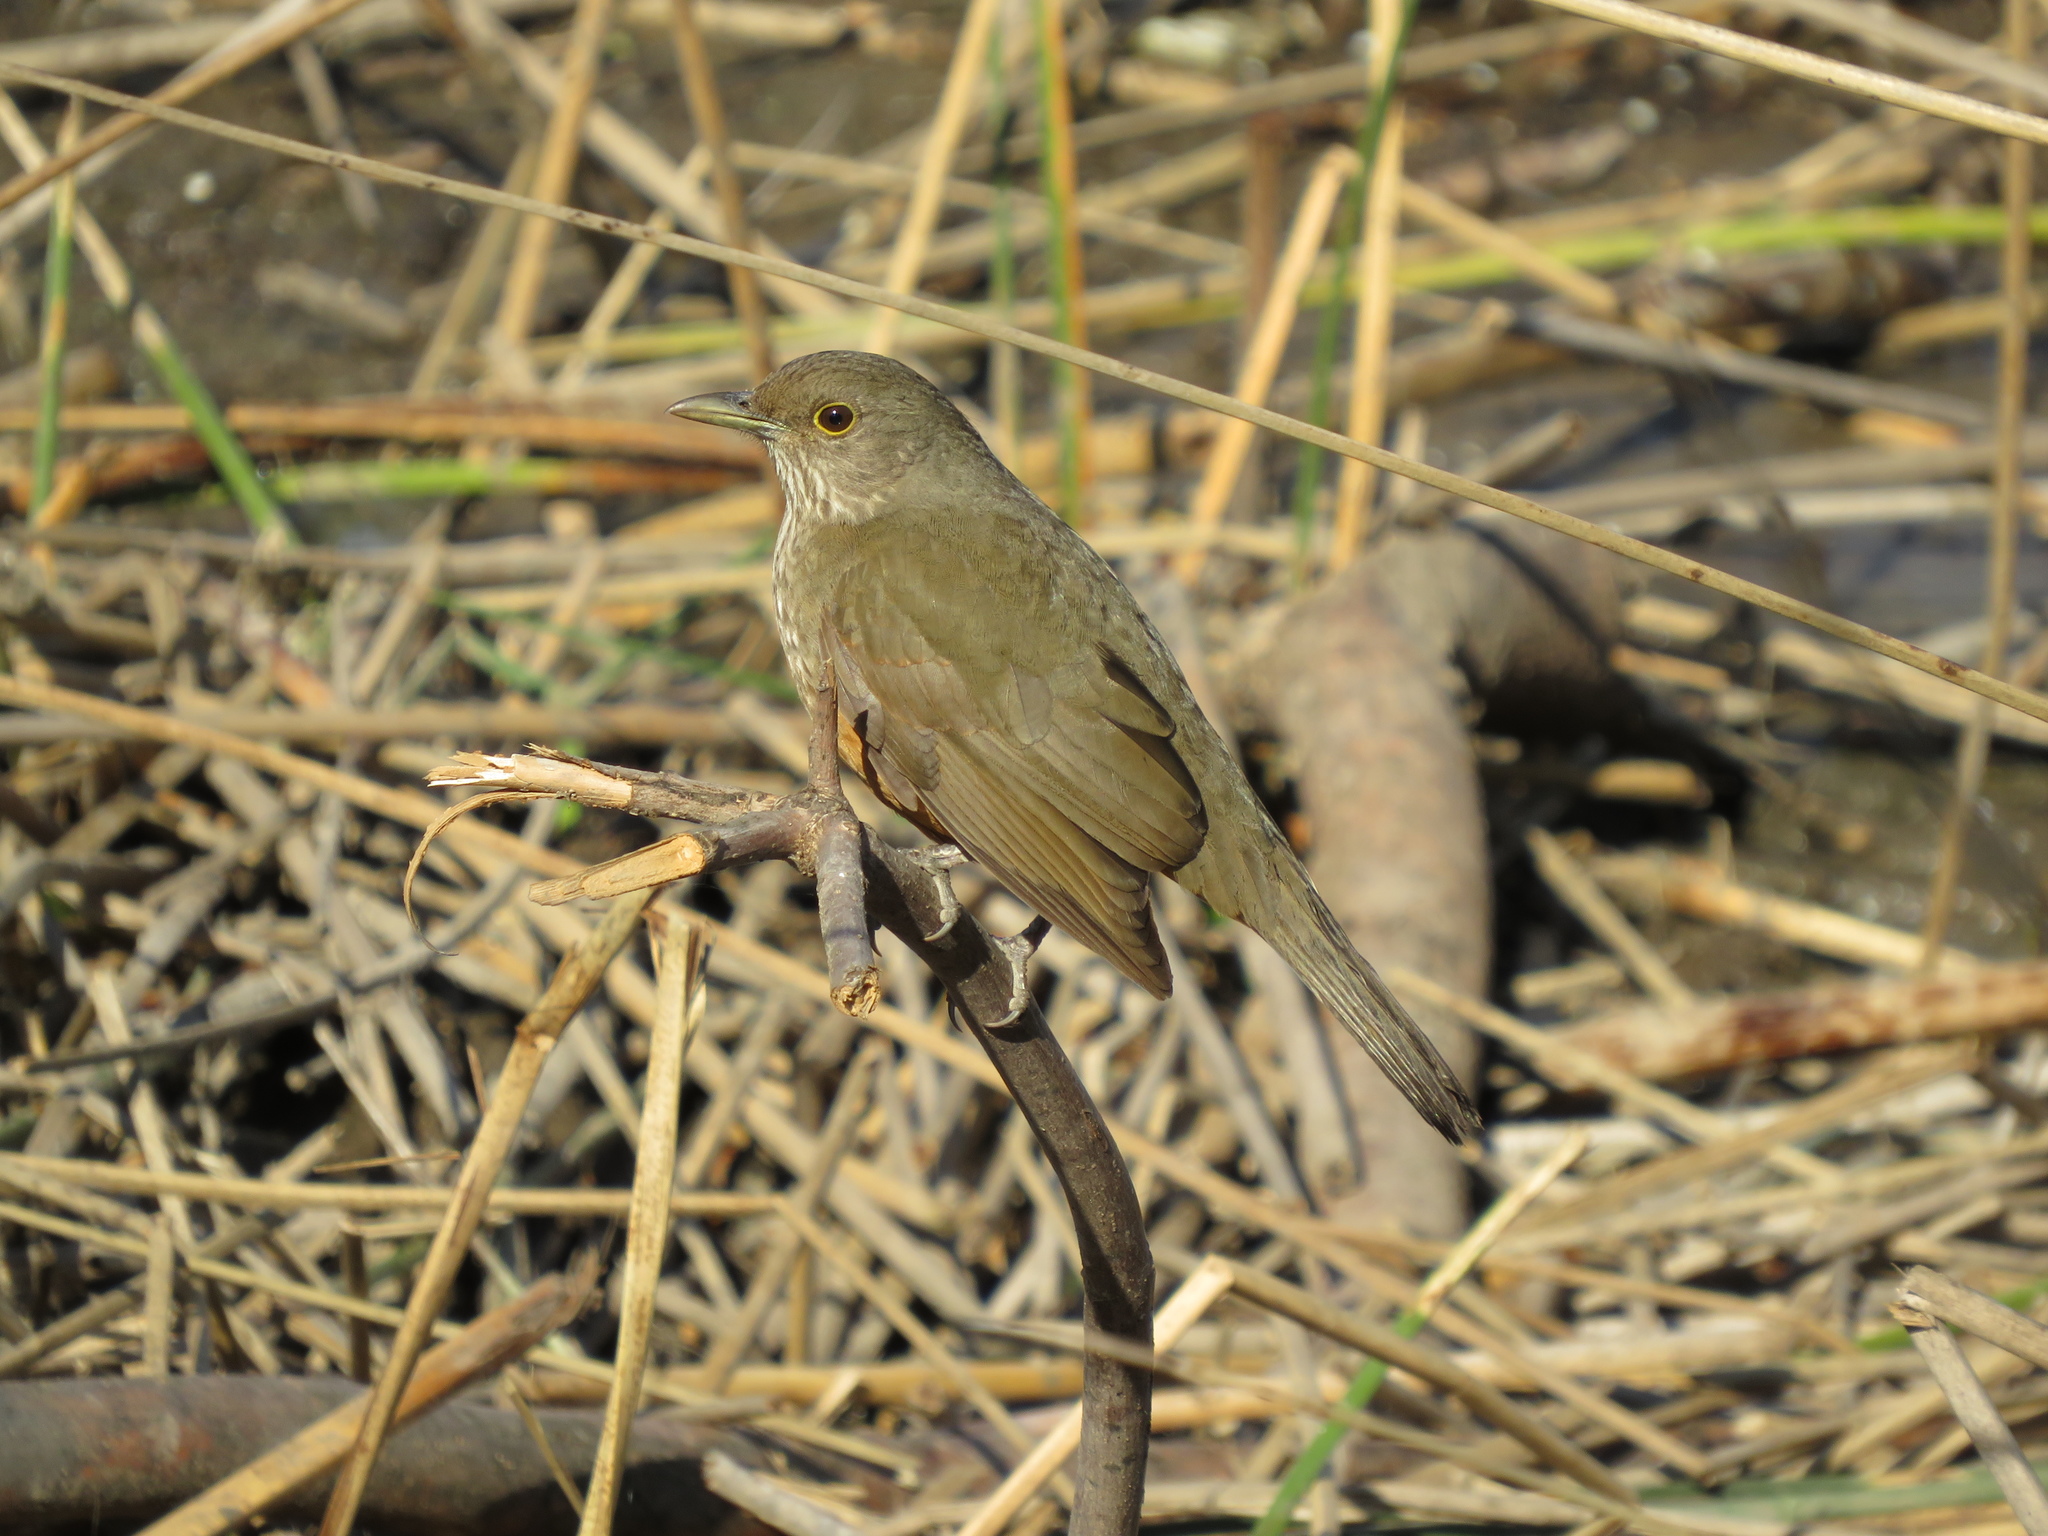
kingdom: Animalia
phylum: Chordata
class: Aves
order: Passeriformes
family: Turdidae
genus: Turdus
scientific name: Turdus rufiventris
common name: Rufous-bellied thrush
